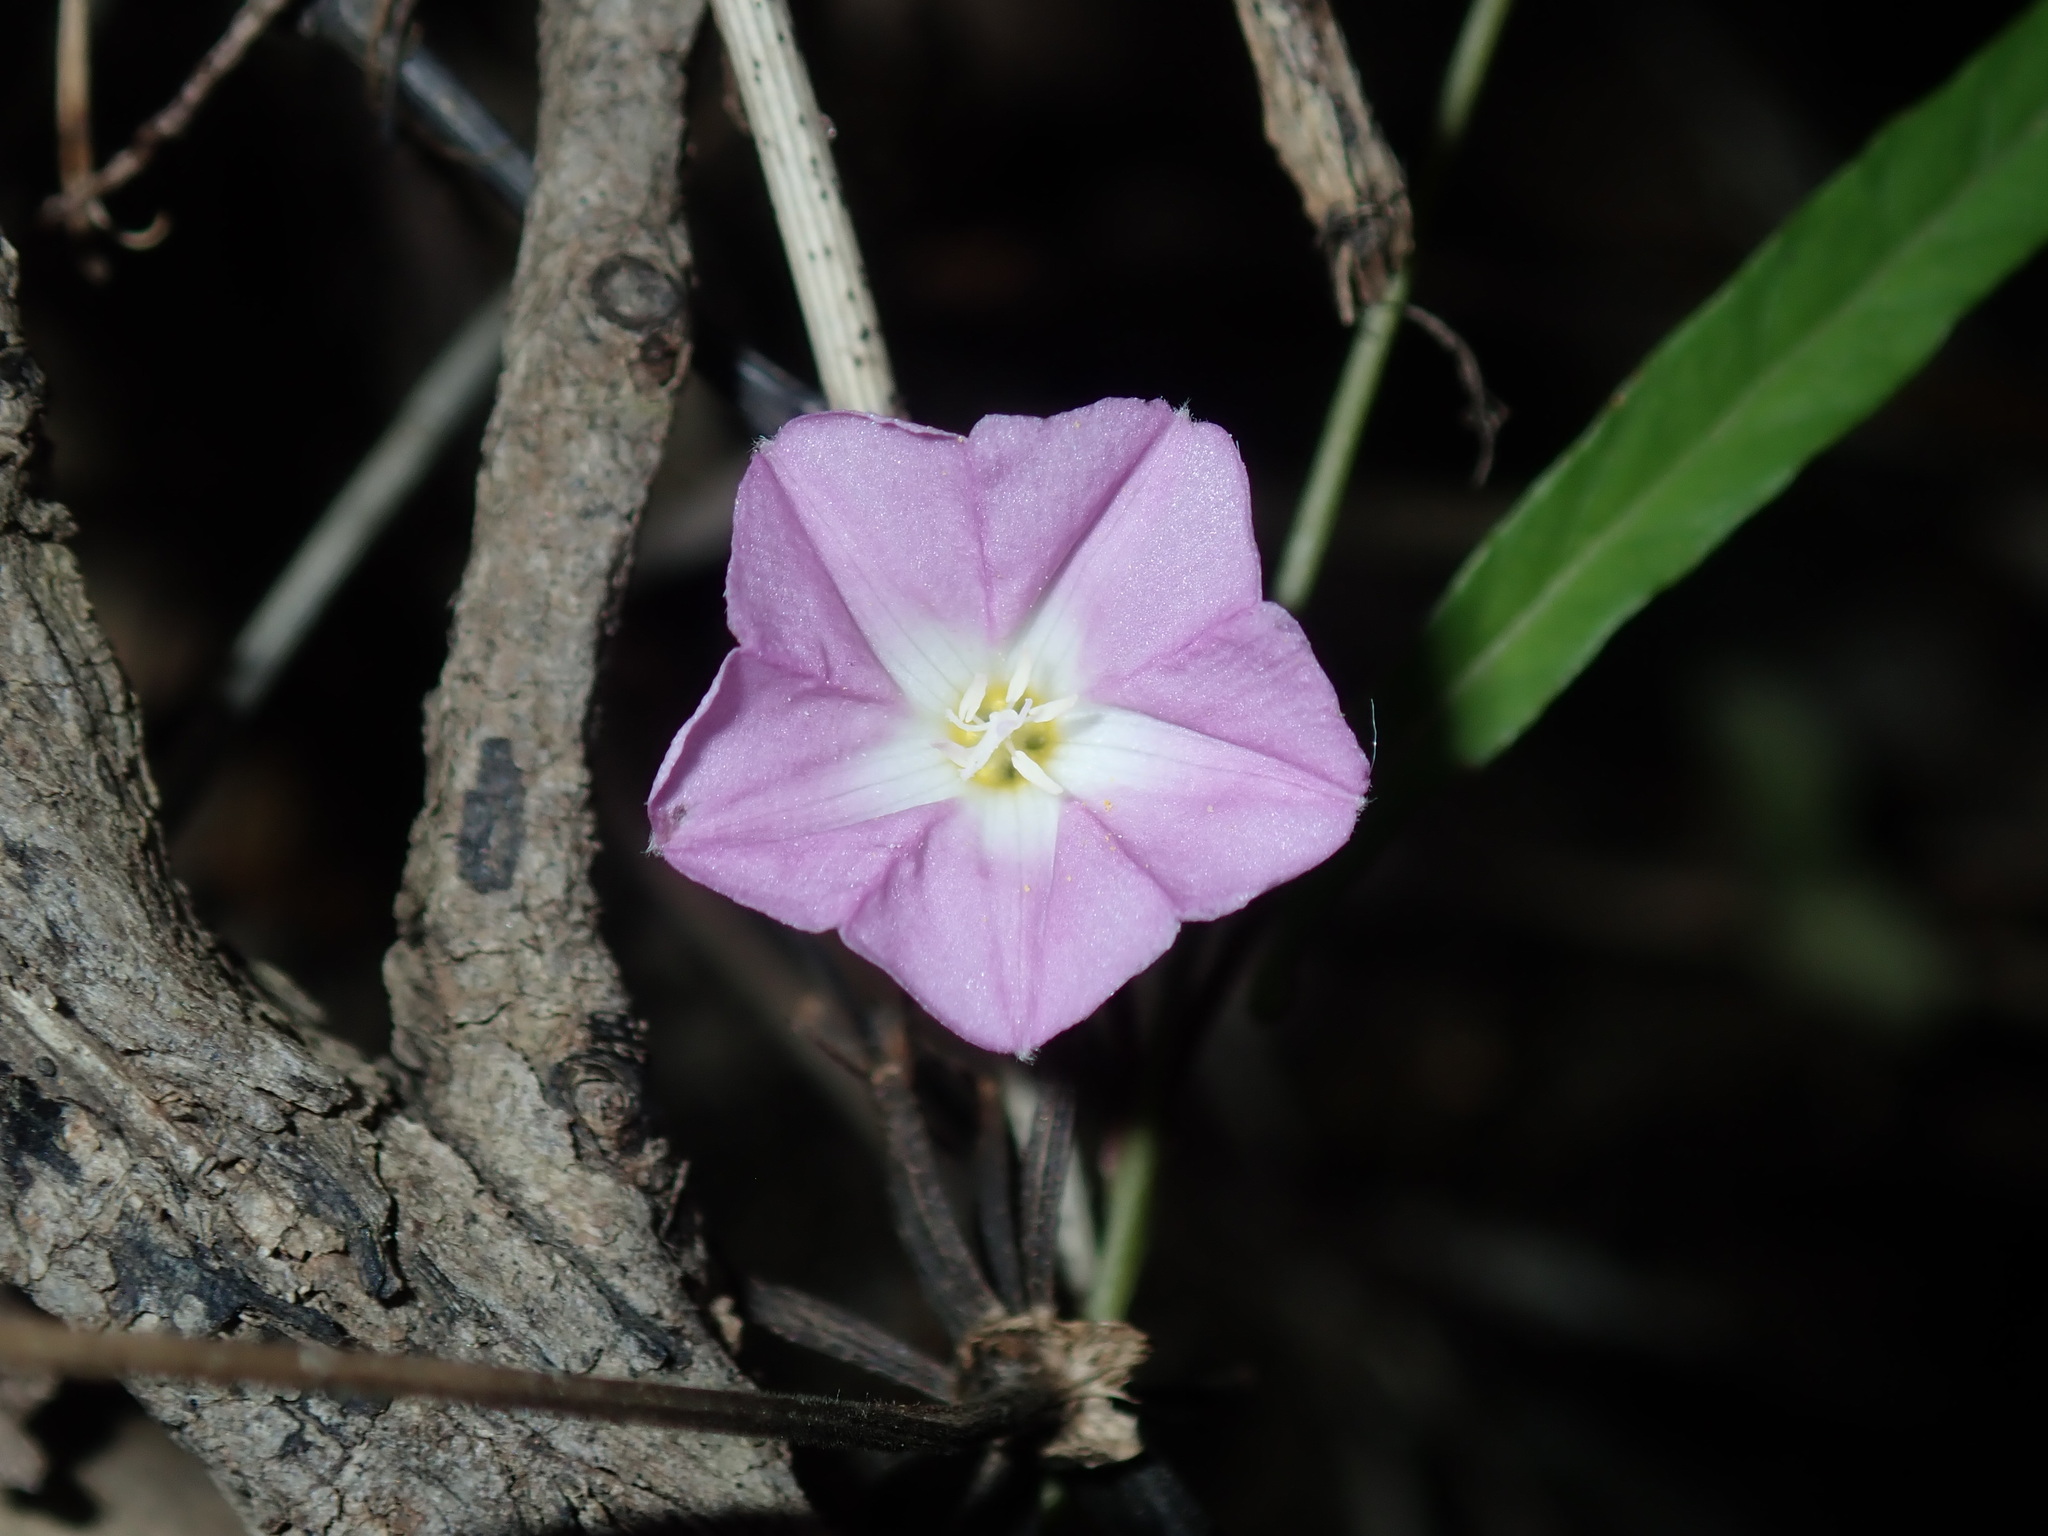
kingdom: Plantae
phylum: Tracheophyta
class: Magnoliopsida
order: Solanales
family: Convolvulaceae
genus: Polymeria
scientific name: Polymeria calycina
